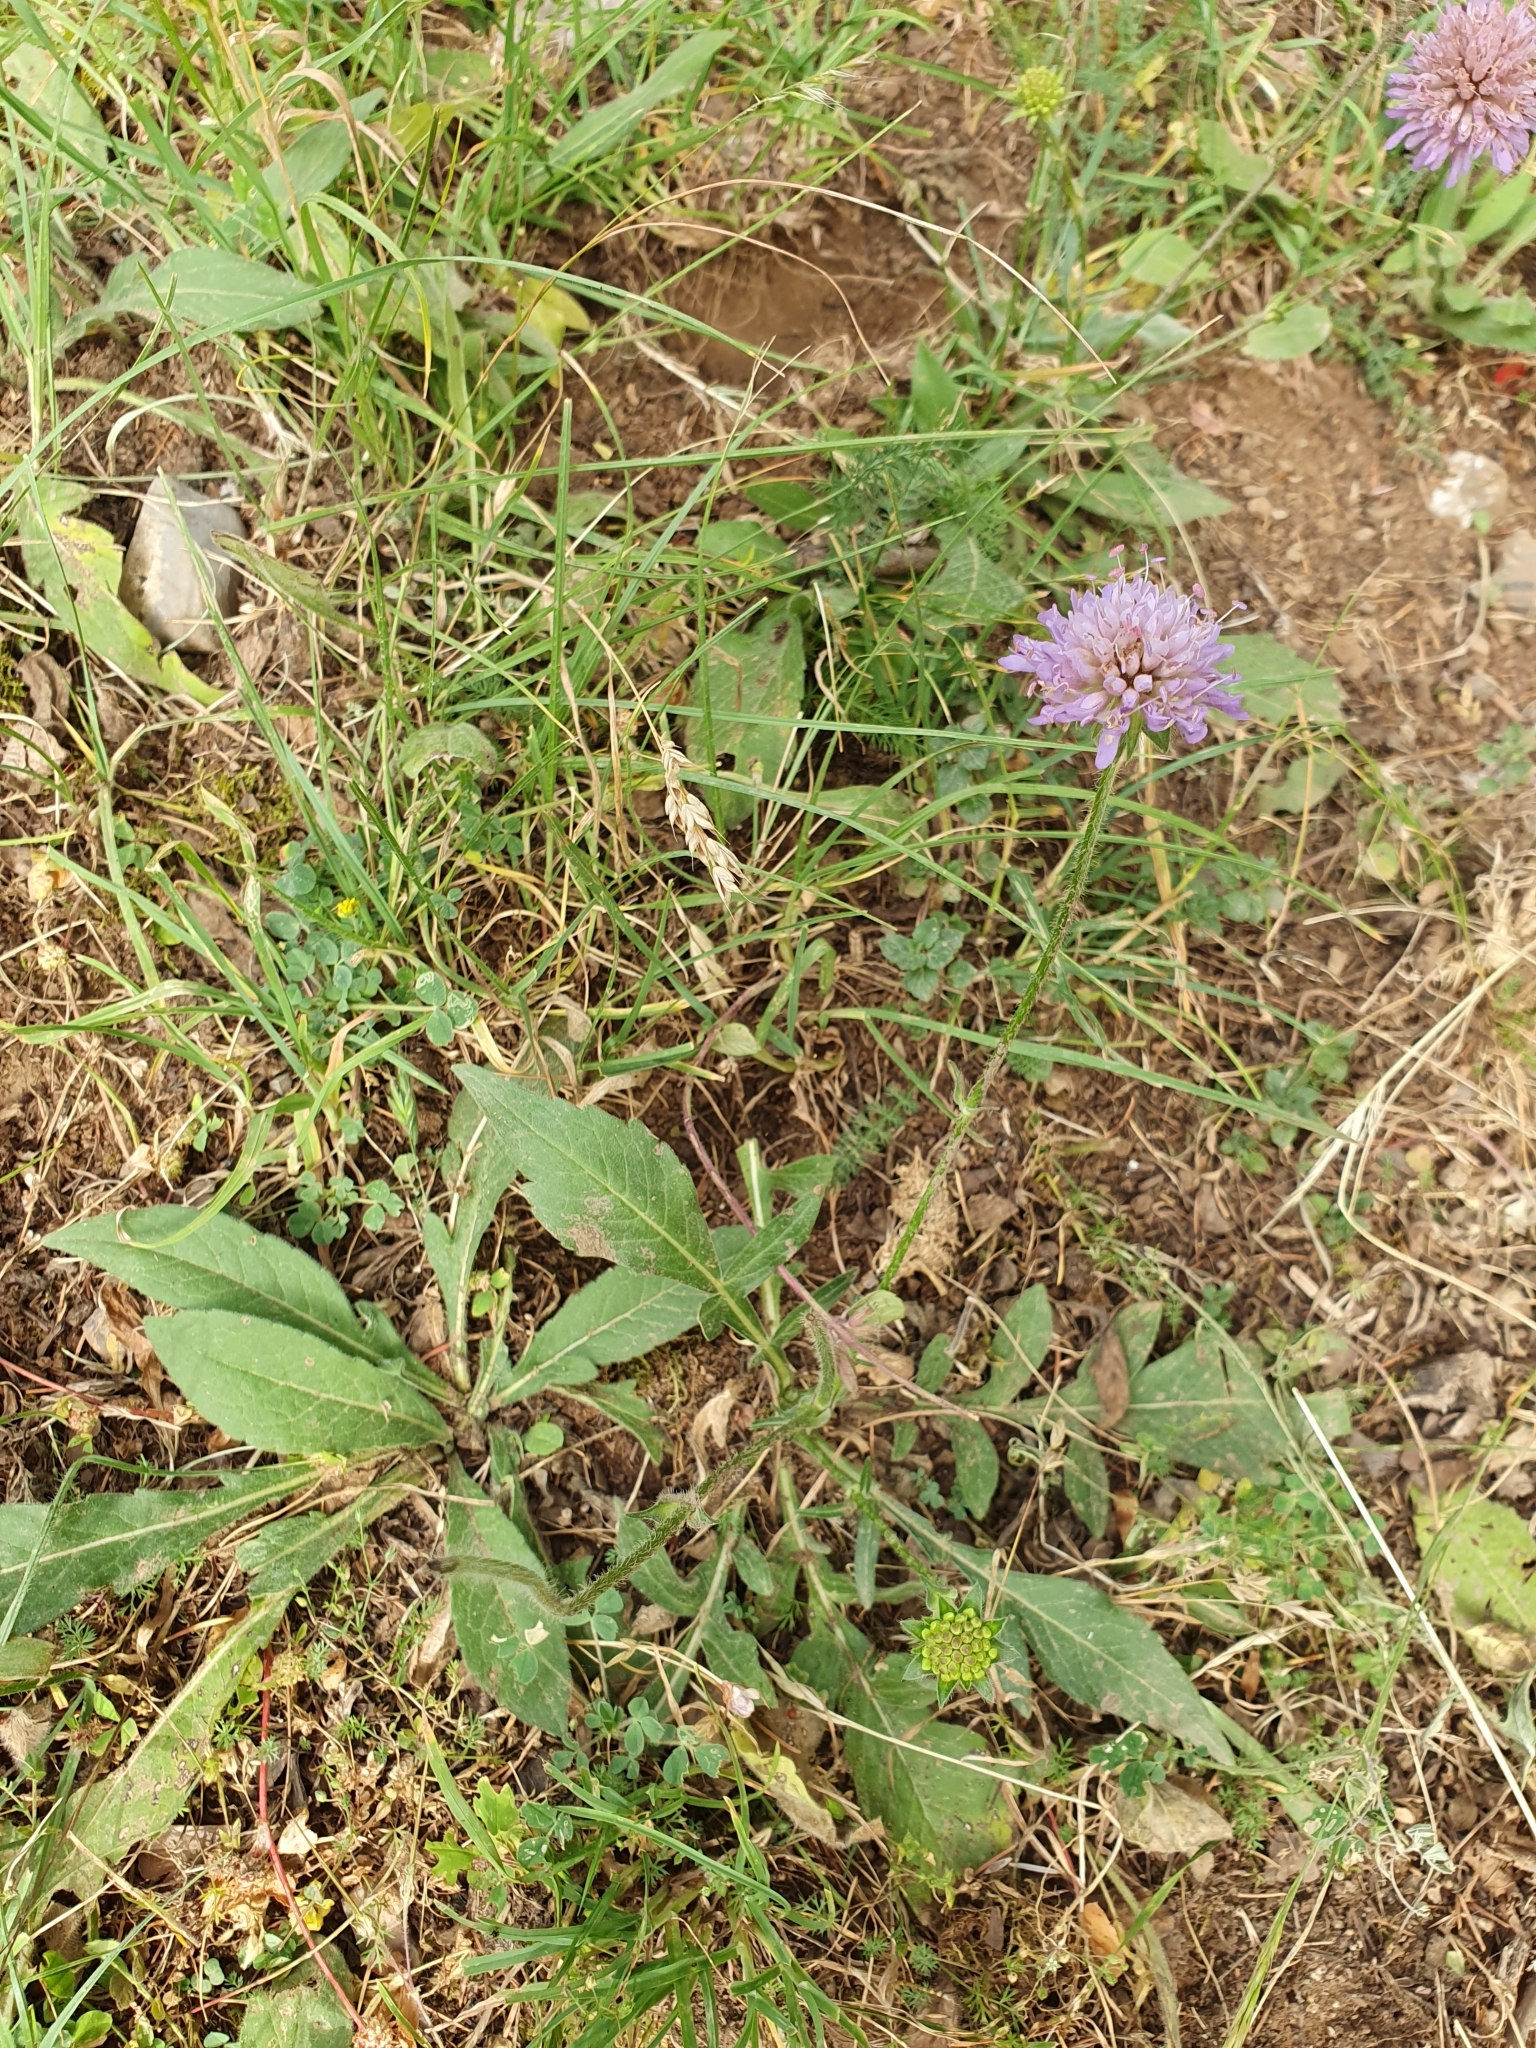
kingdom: Plantae
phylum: Tracheophyta
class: Magnoliopsida
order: Dipsacales
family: Caprifoliaceae
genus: Knautia
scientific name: Knautia calycina
